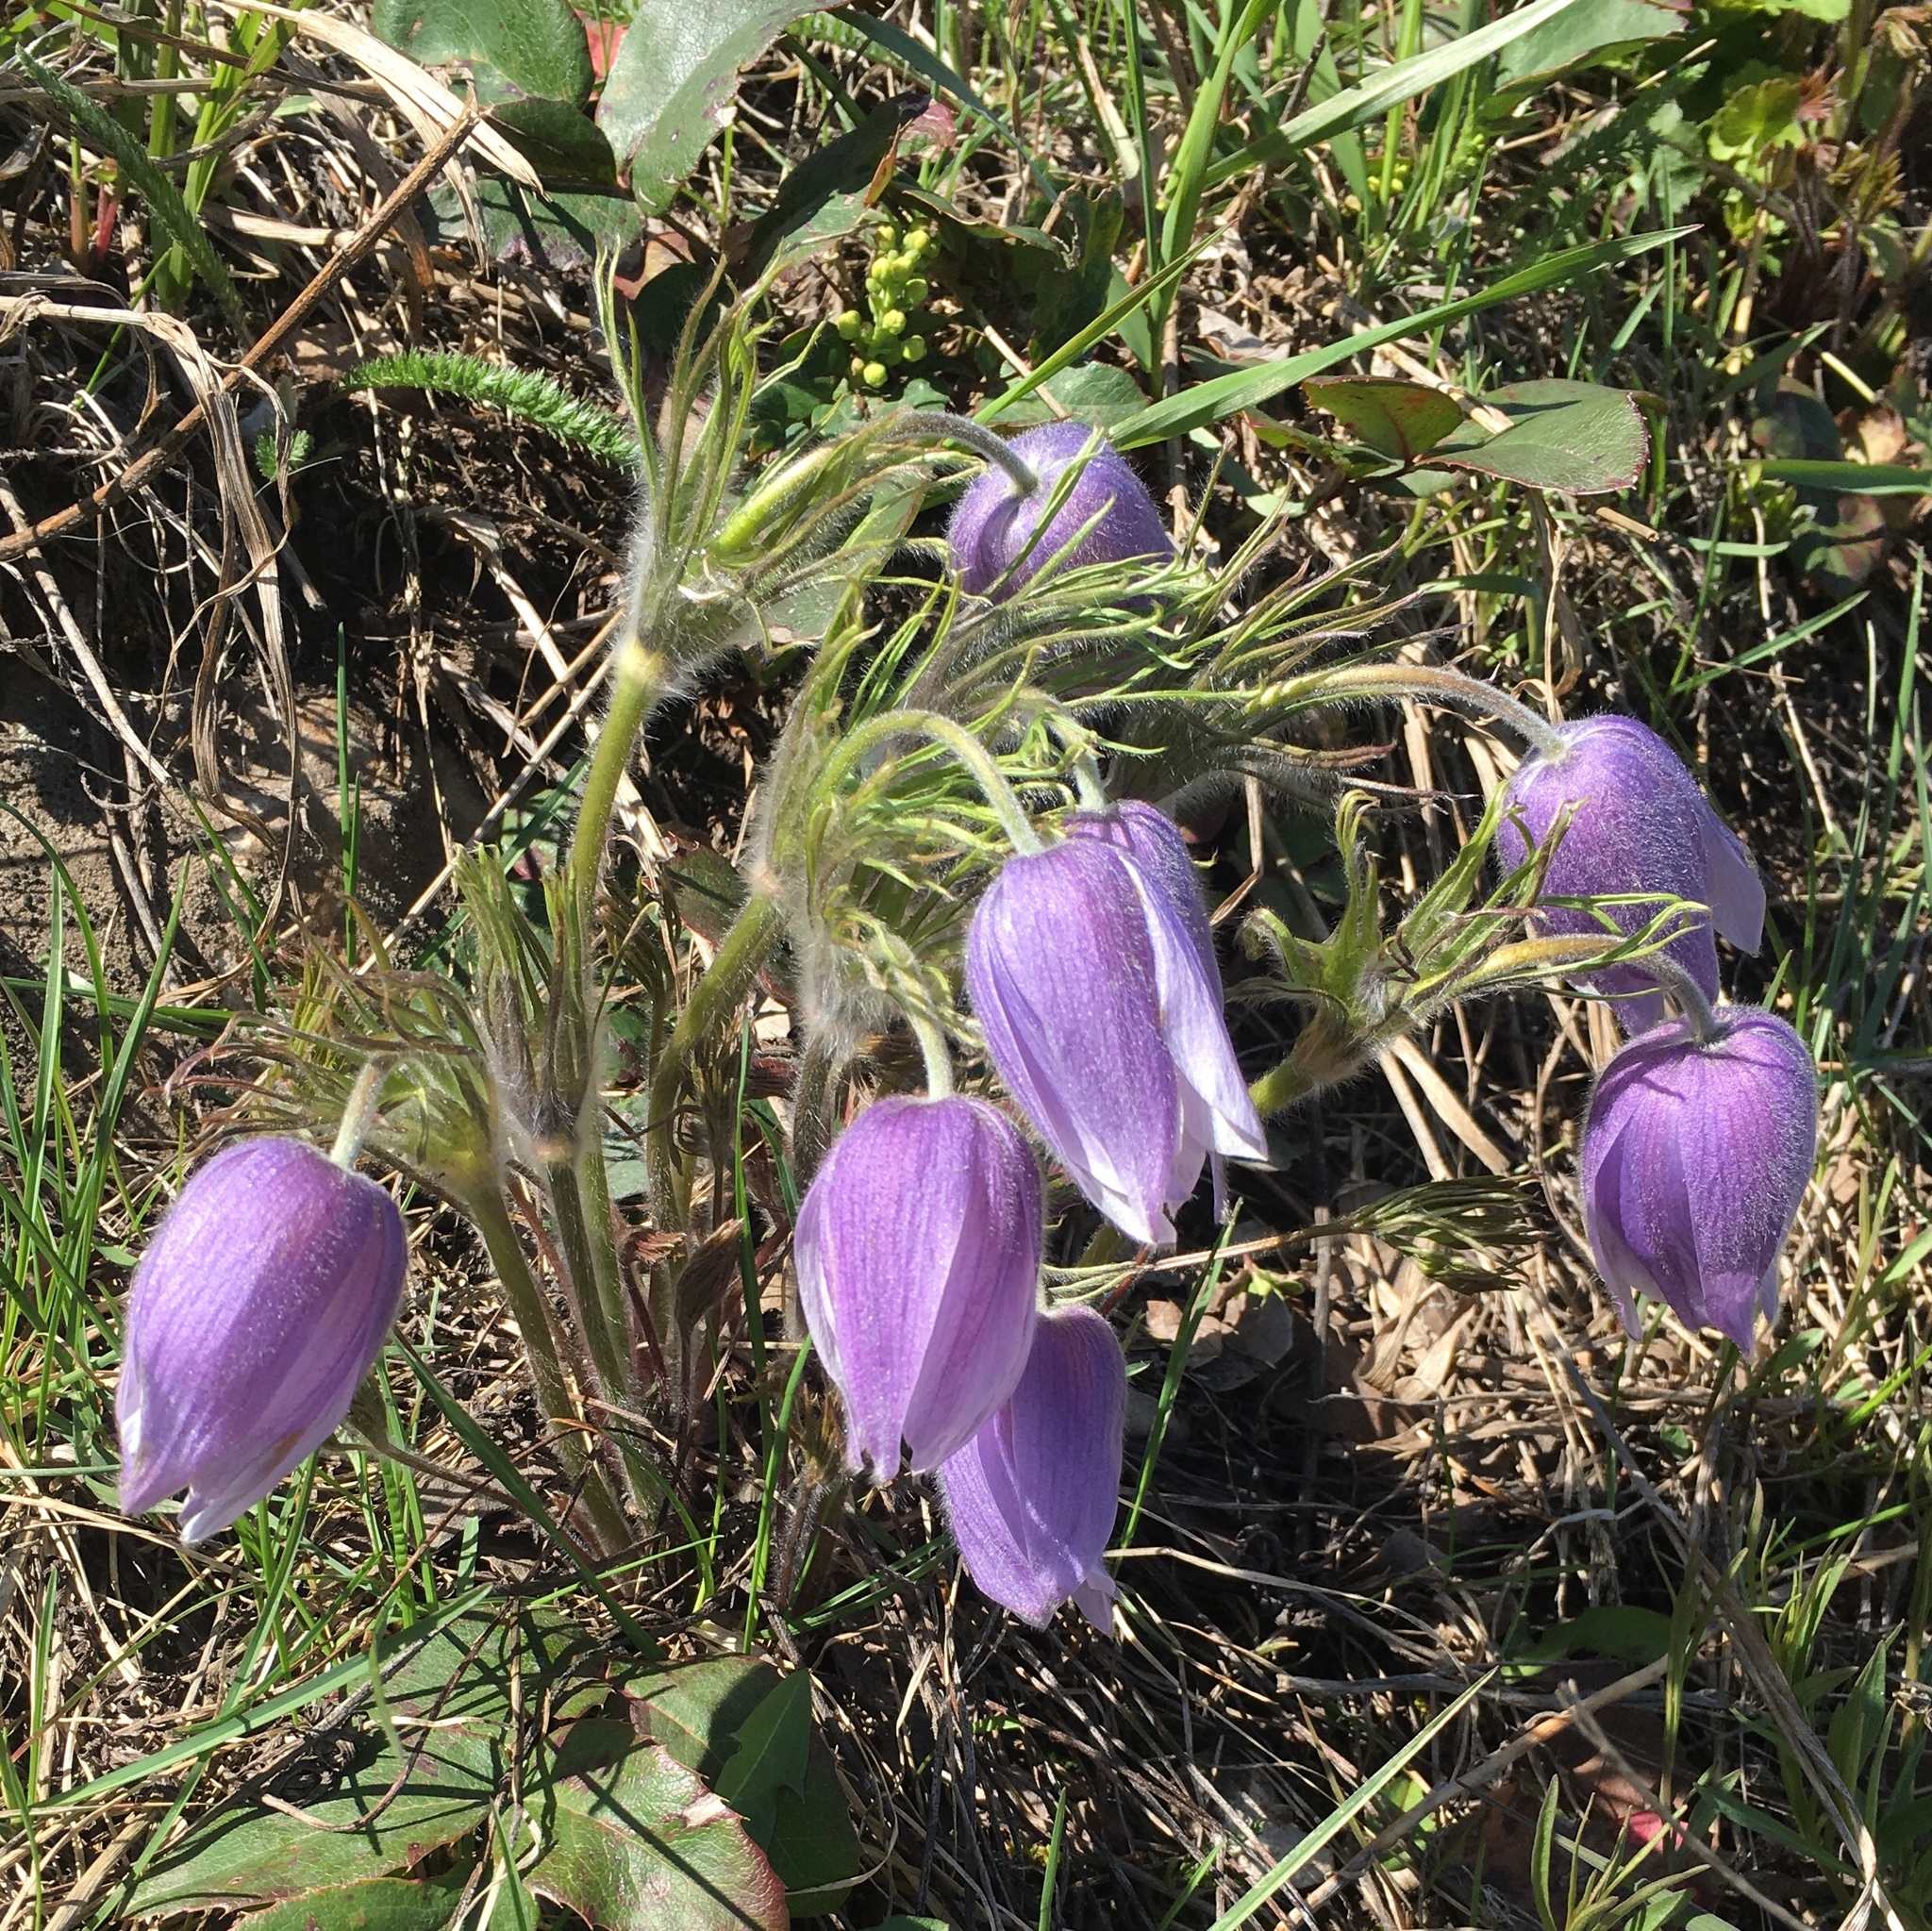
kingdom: Plantae
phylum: Tracheophyta
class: Magnoliopsida
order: Ranunculales
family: Ranunculaceae
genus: Pulsatilla
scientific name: Pulsatilla nuttalliana
